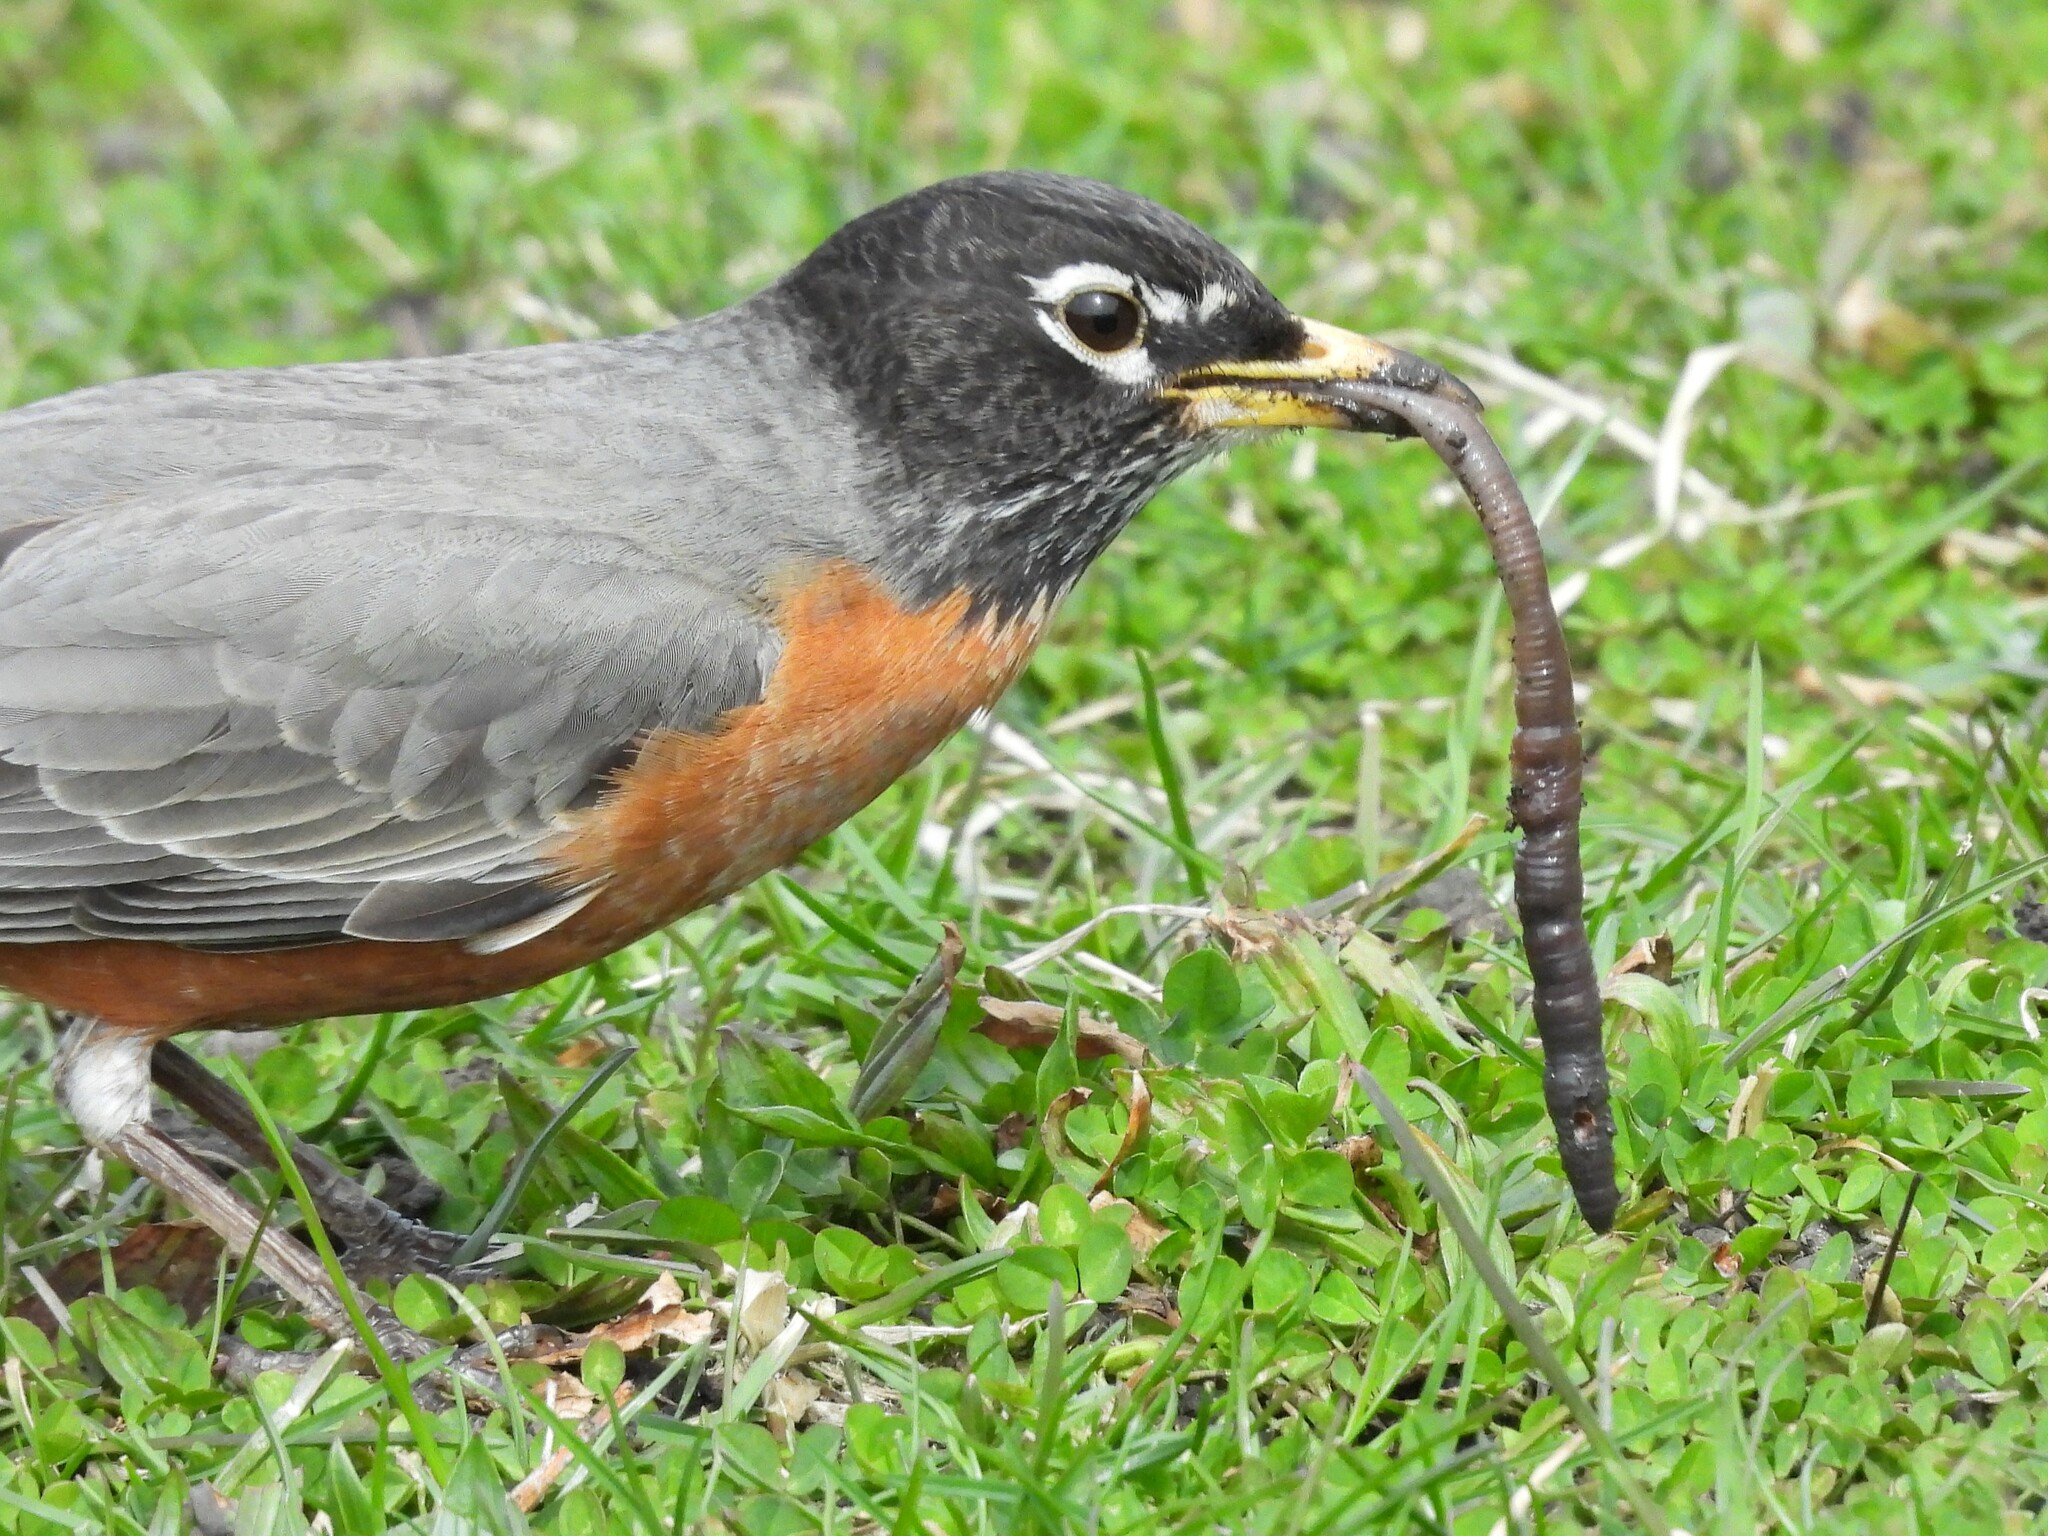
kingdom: Animalia
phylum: Chordata
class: Aves
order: Passeriformes
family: Turdidae
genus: Turdus
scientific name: Turdus migratorius
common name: American robin
